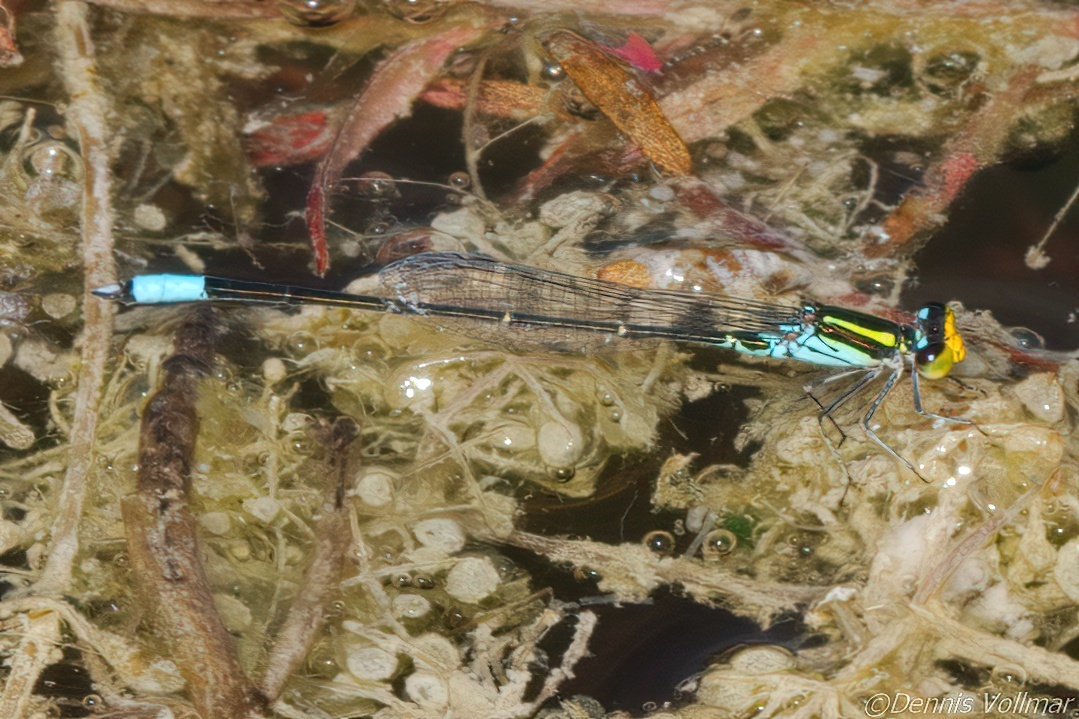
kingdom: Animalia
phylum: Arthropoda
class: Insecta
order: Odonata
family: Coenagrionidae
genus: Neoerythromma
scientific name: Neoerythromma cultellatum
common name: Caribbean yellowface
